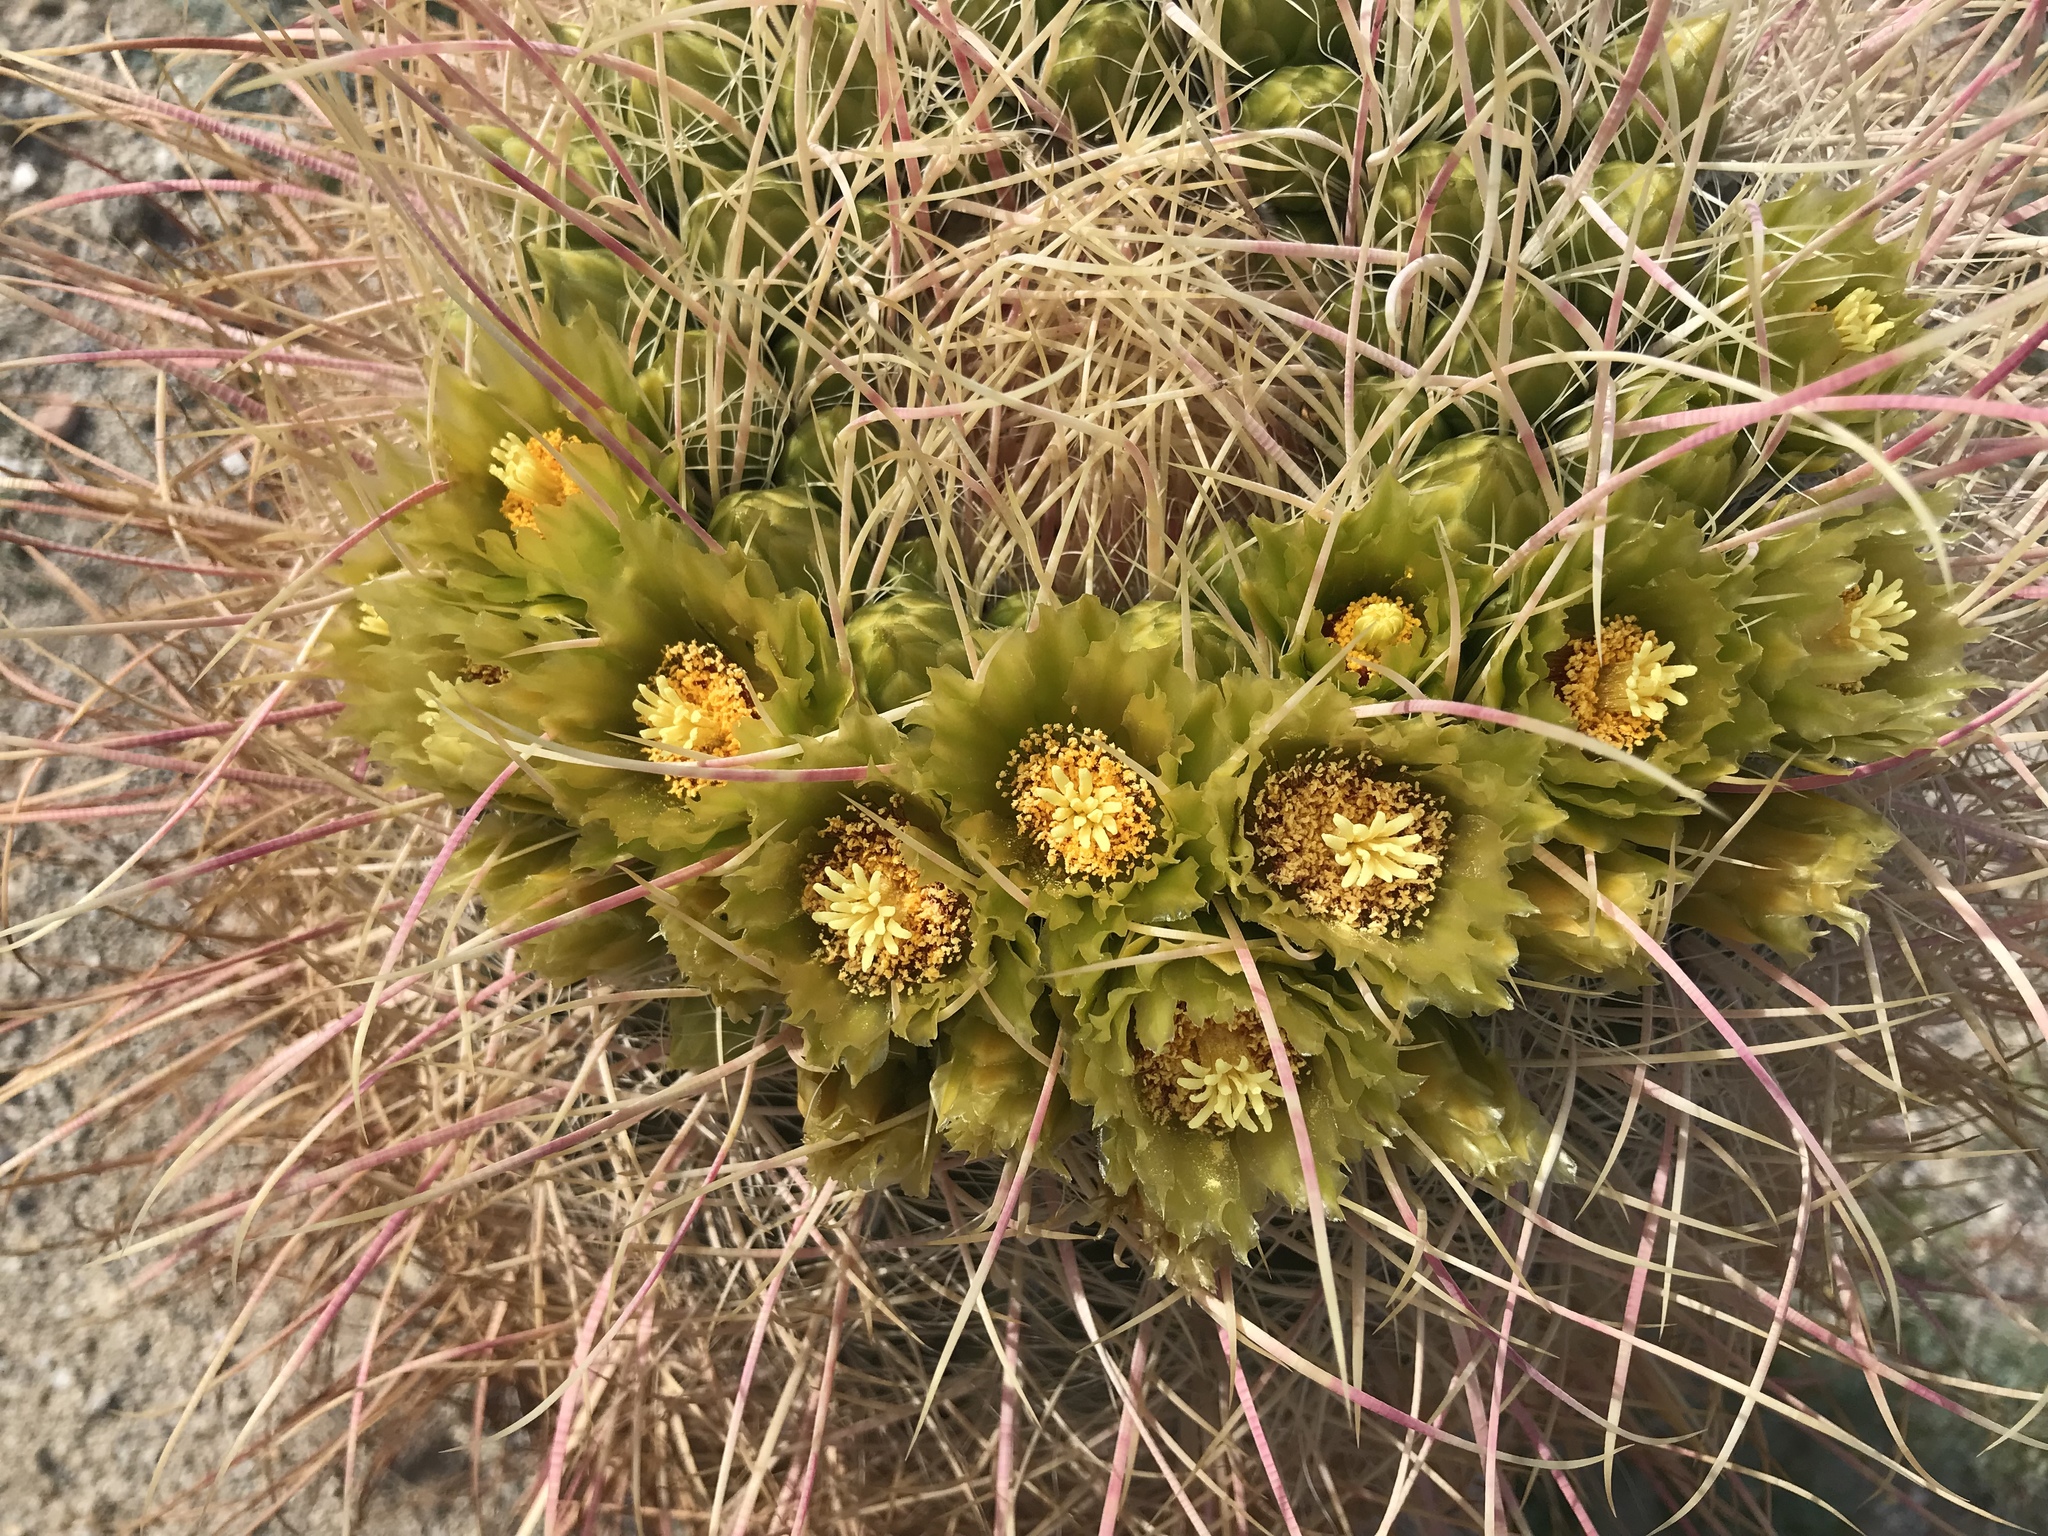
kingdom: Plantae
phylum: Tracheophyta
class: Magnoliopsida
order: Caryophyllales
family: Cactaceae
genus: Ferocactus
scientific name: Ferocactus cylindraceus
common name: California barrel cactus
